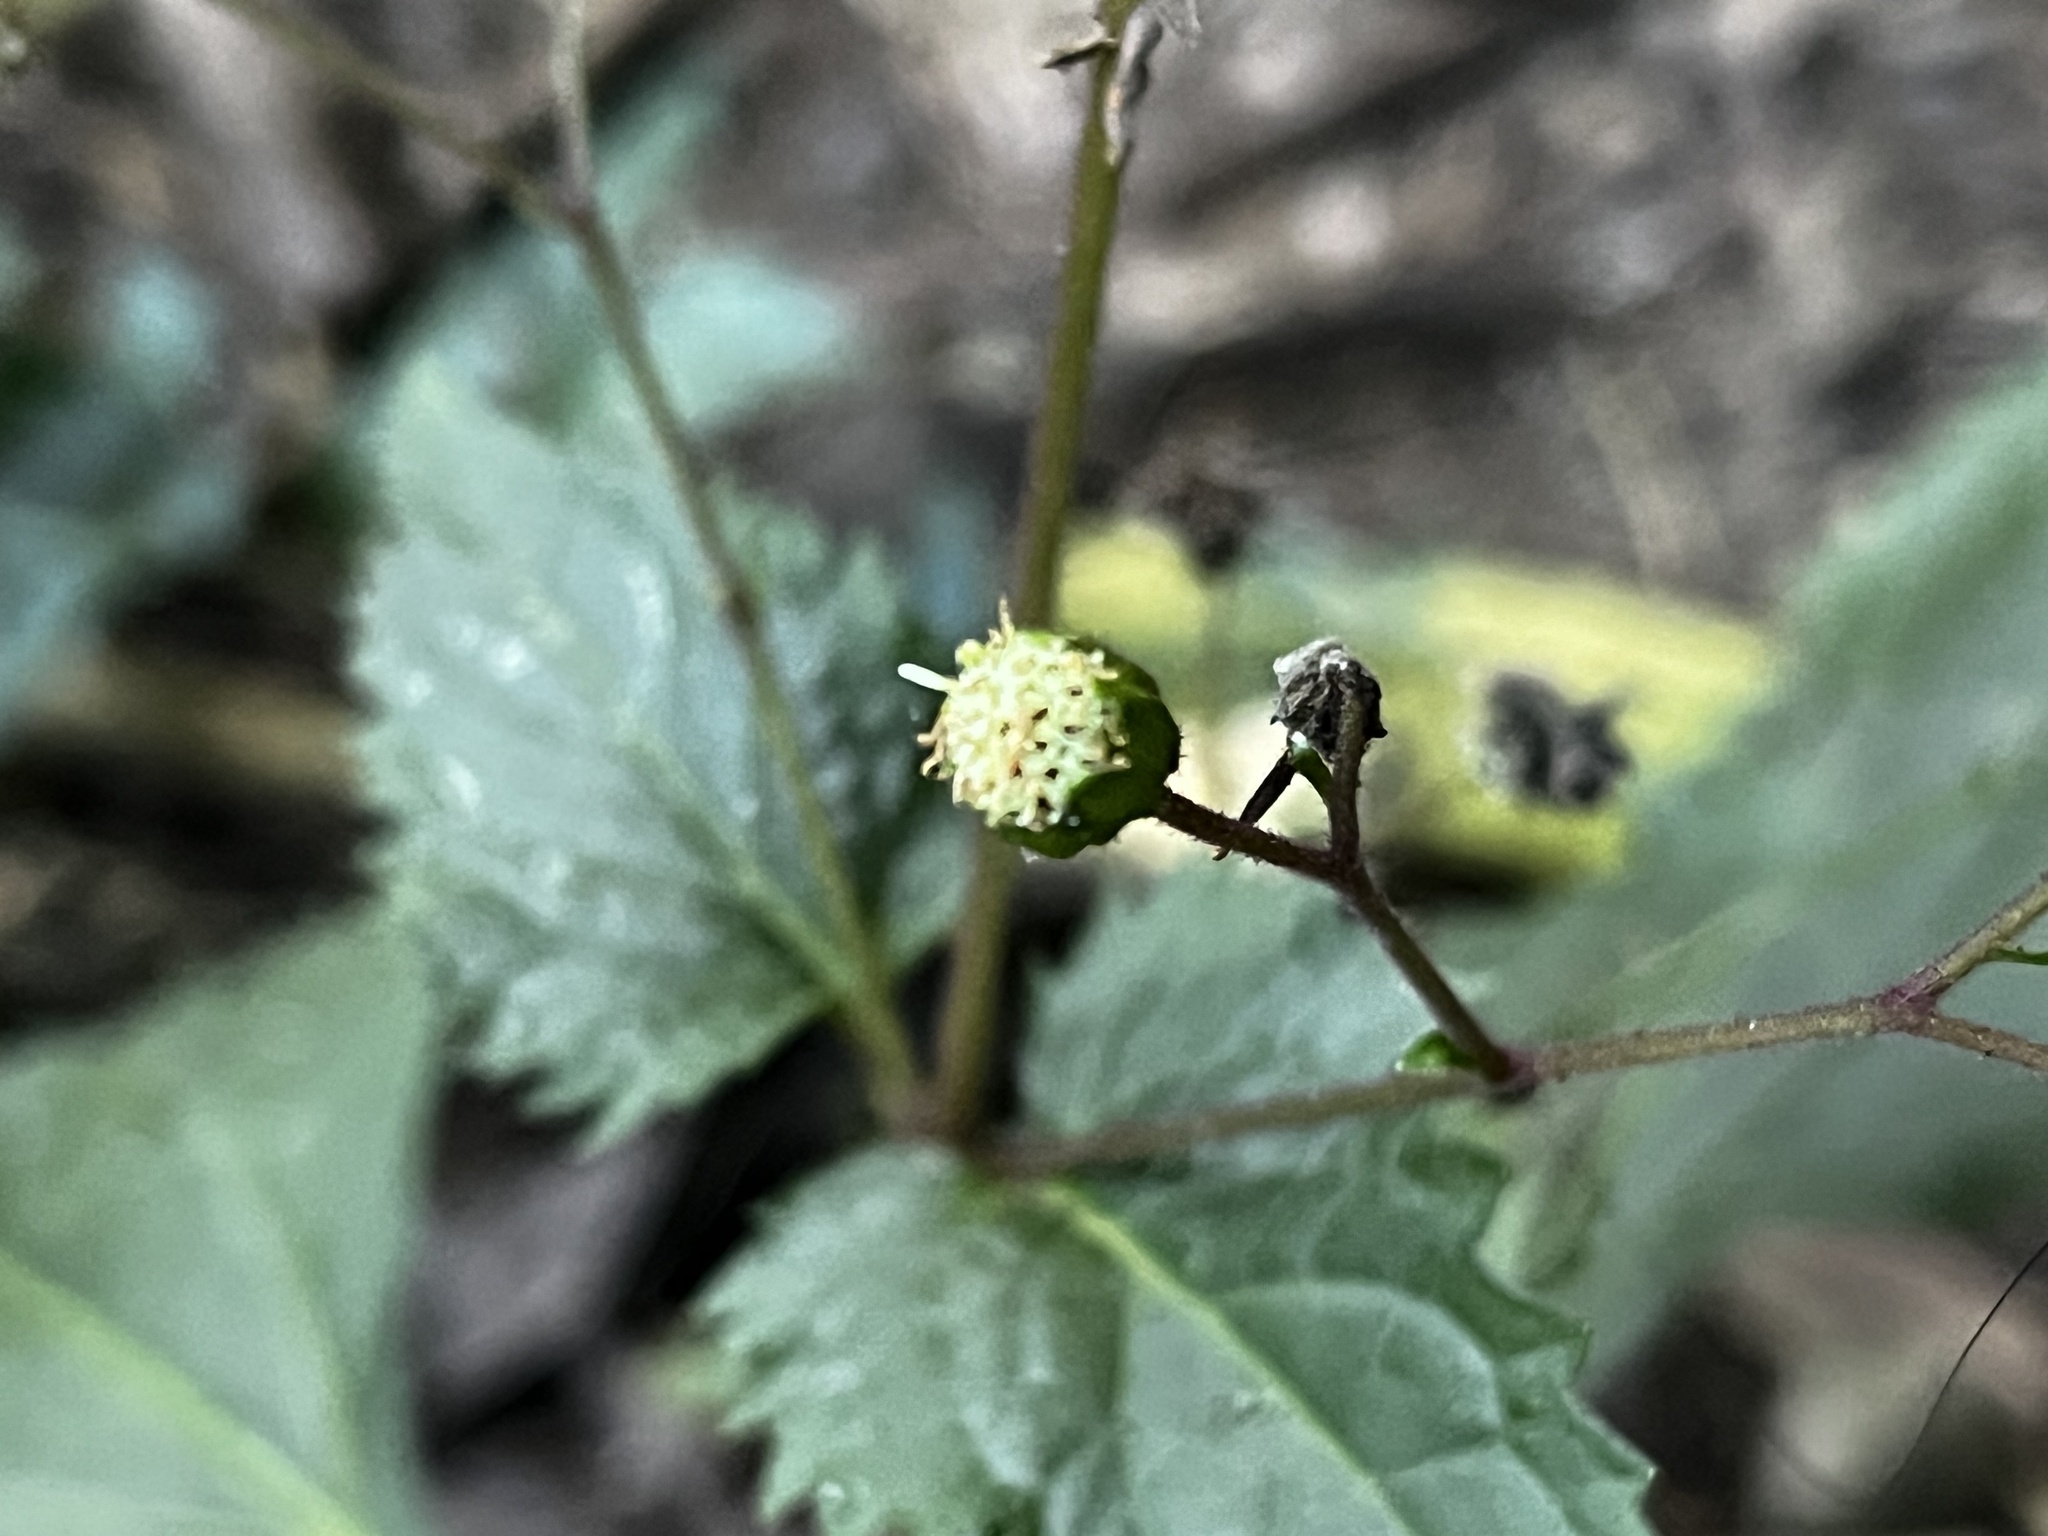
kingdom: Plantae
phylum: Tracheophyta
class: Magnoliopsida
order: Asterales
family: Asteraceae
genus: Adenostemma
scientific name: Adenostemma lavenia
